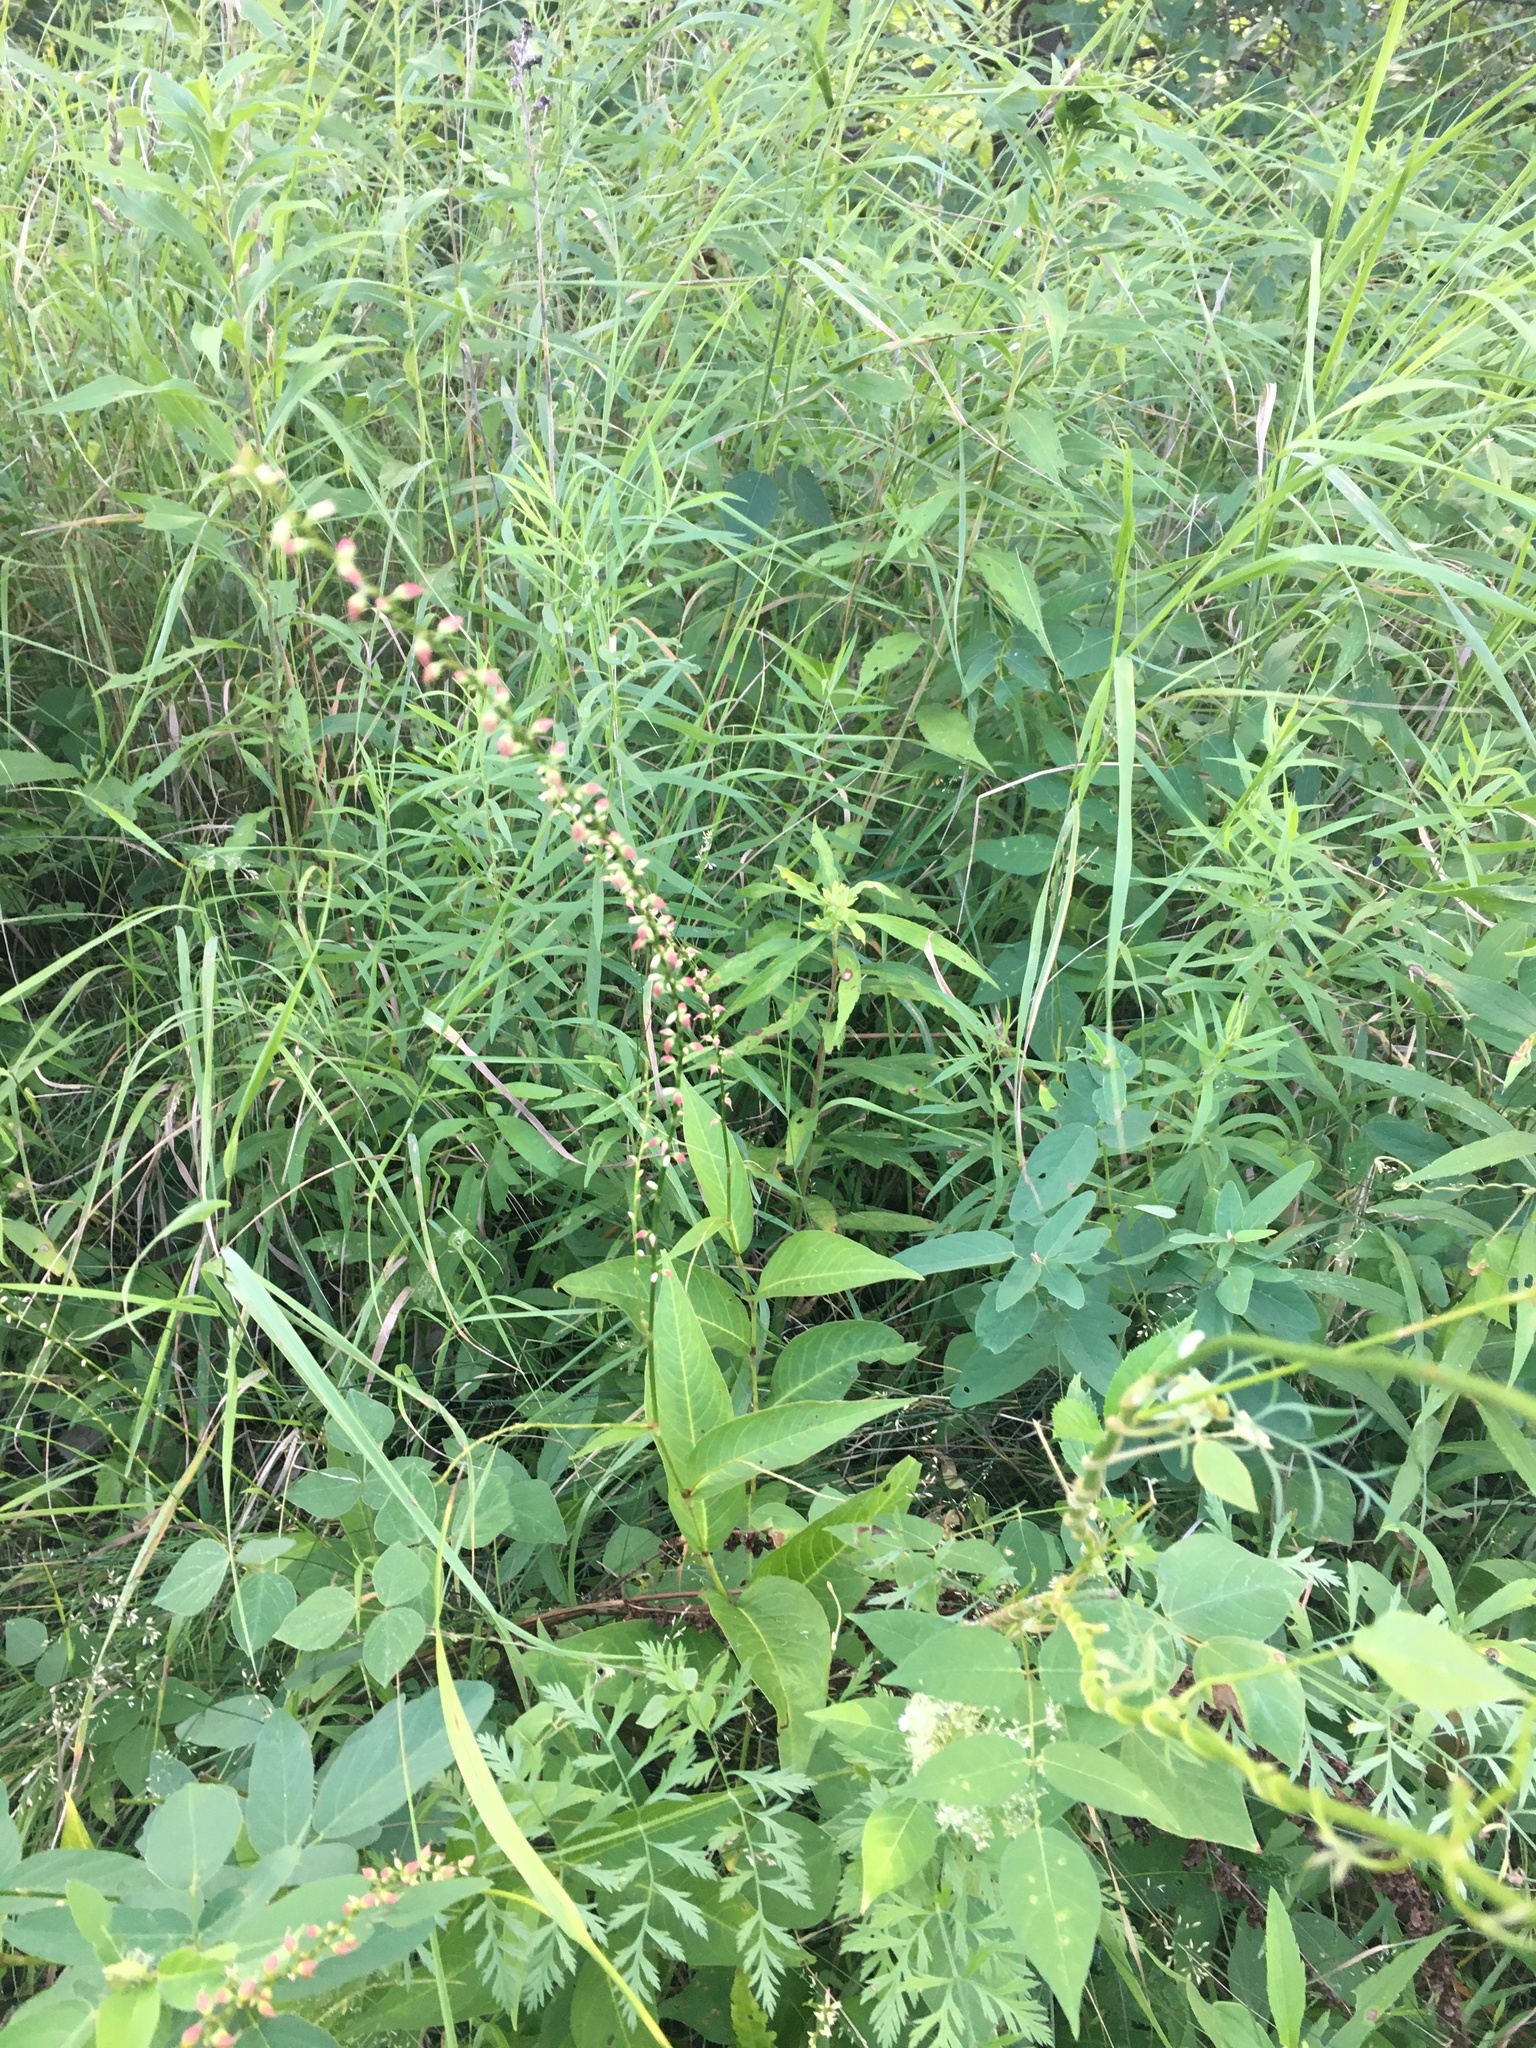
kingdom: Plantae
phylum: Tracheophyta
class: Magnoliopsida
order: Caryophyllales
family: Polygonaceae
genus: Persicaria
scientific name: Persicaria virginiana
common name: Jumpseed
